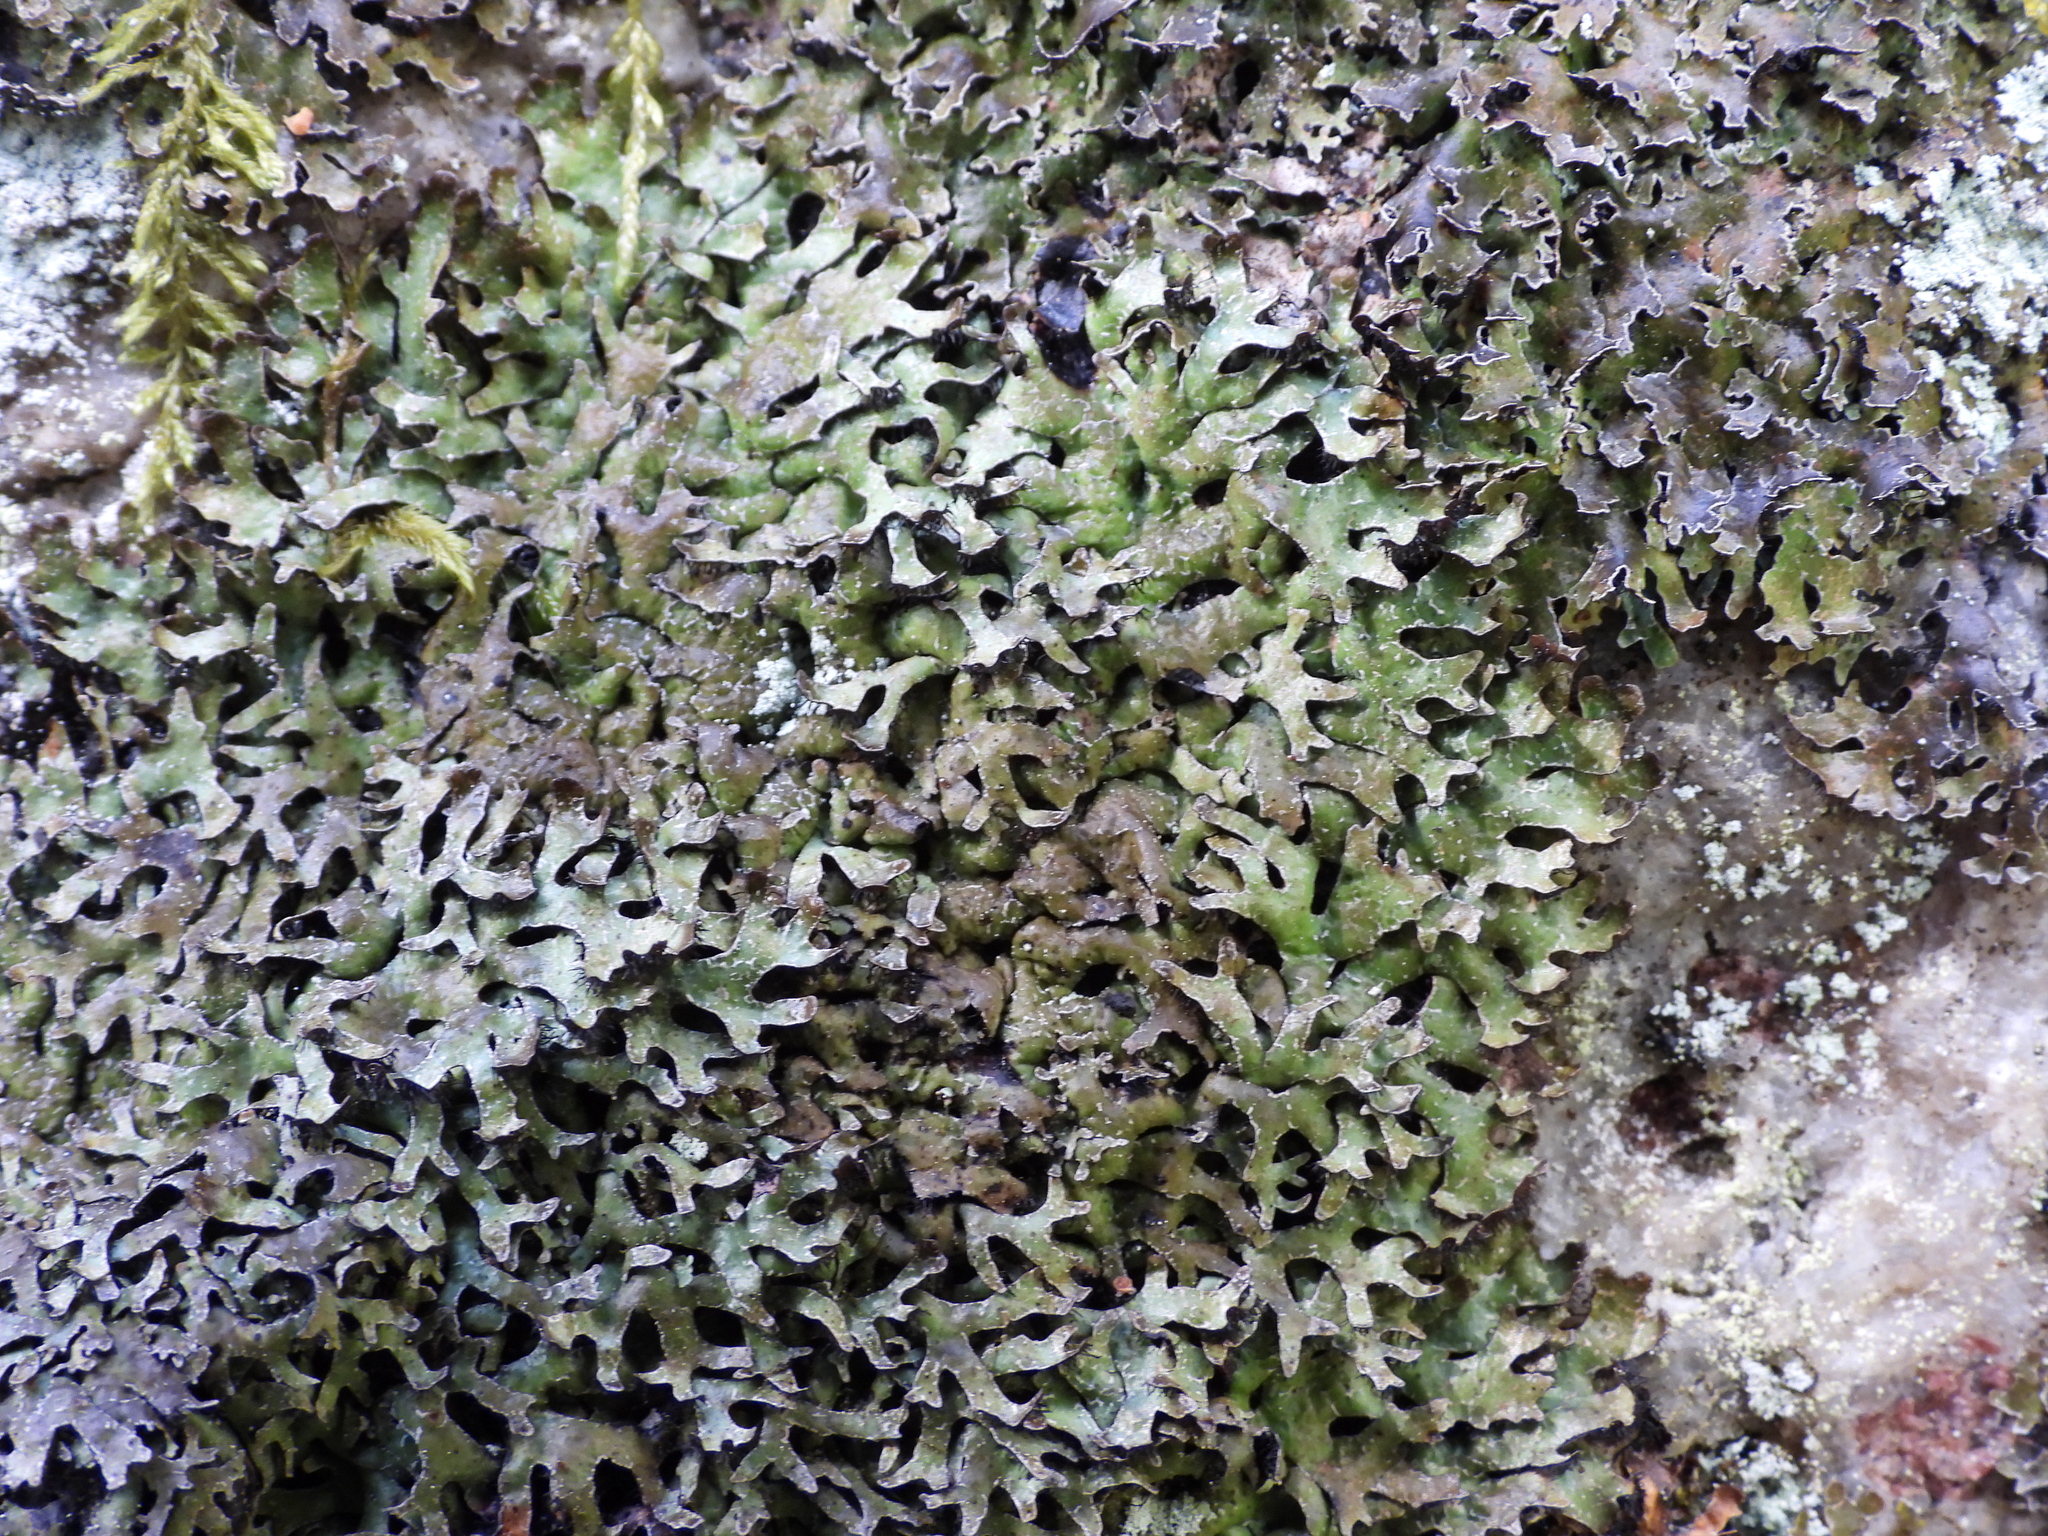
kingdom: Fungi
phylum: Ascomycota
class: Lecanoromycetes
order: Lecanorales
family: Parmeliaceae
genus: Parmelia
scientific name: Parmelia pinnatifida
